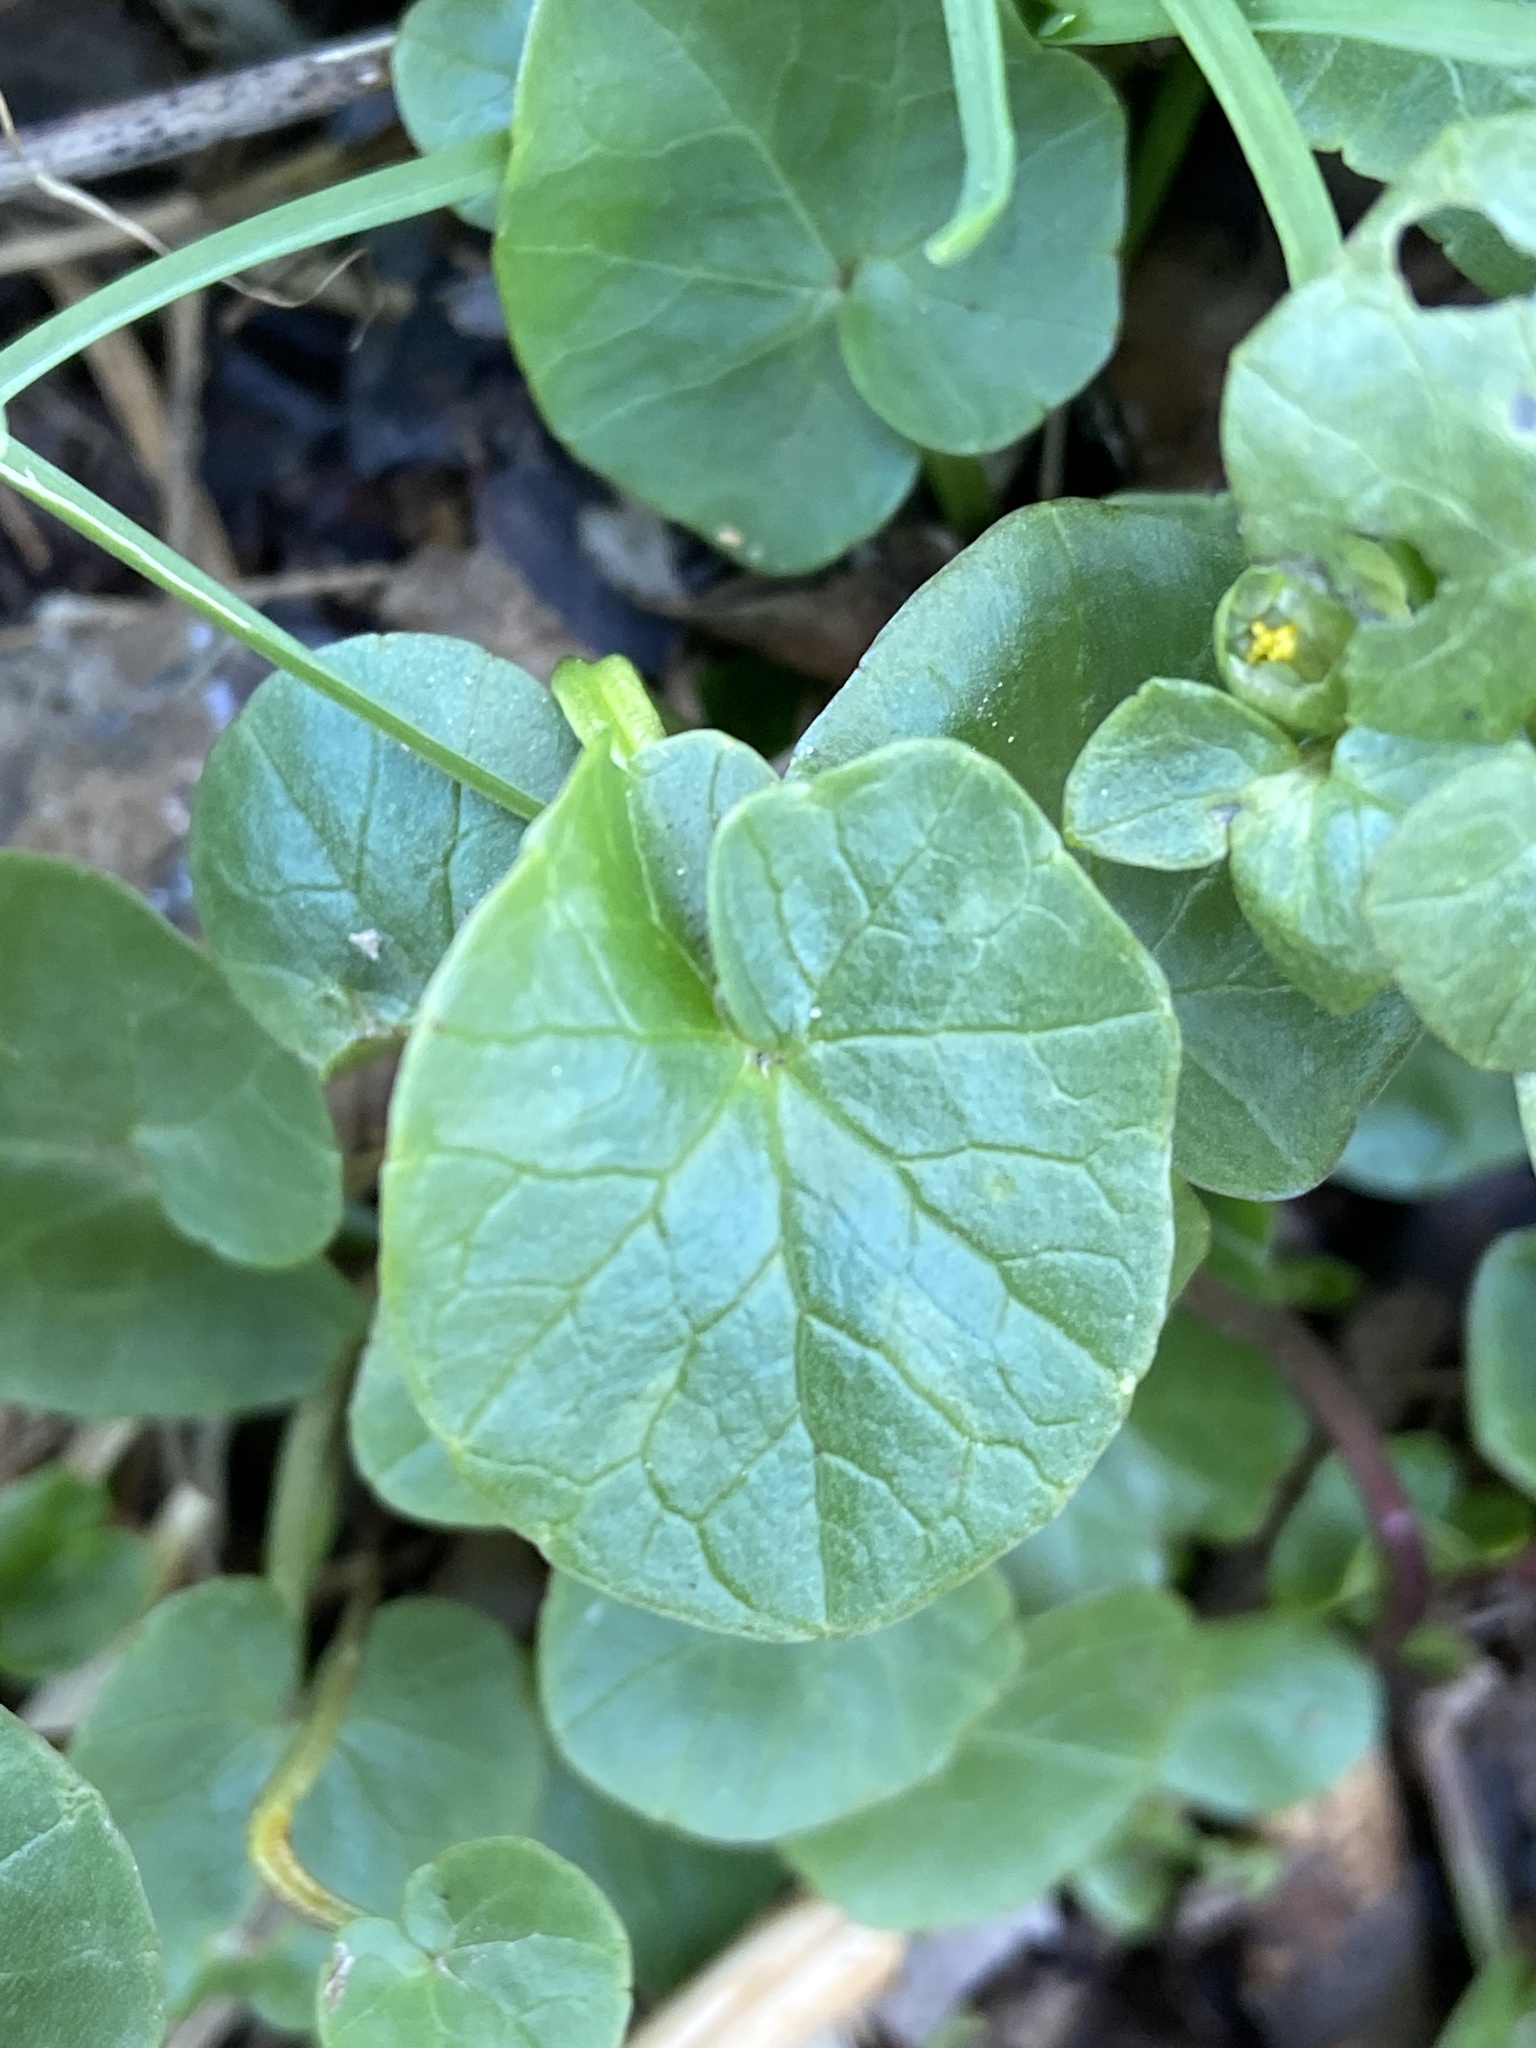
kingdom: Plantae
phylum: Tracheophyta
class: Magnoliopsida
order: Ranunculales
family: Ranunculaceae
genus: Ficaria
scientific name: Ficaria verna
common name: Lesser celandine
